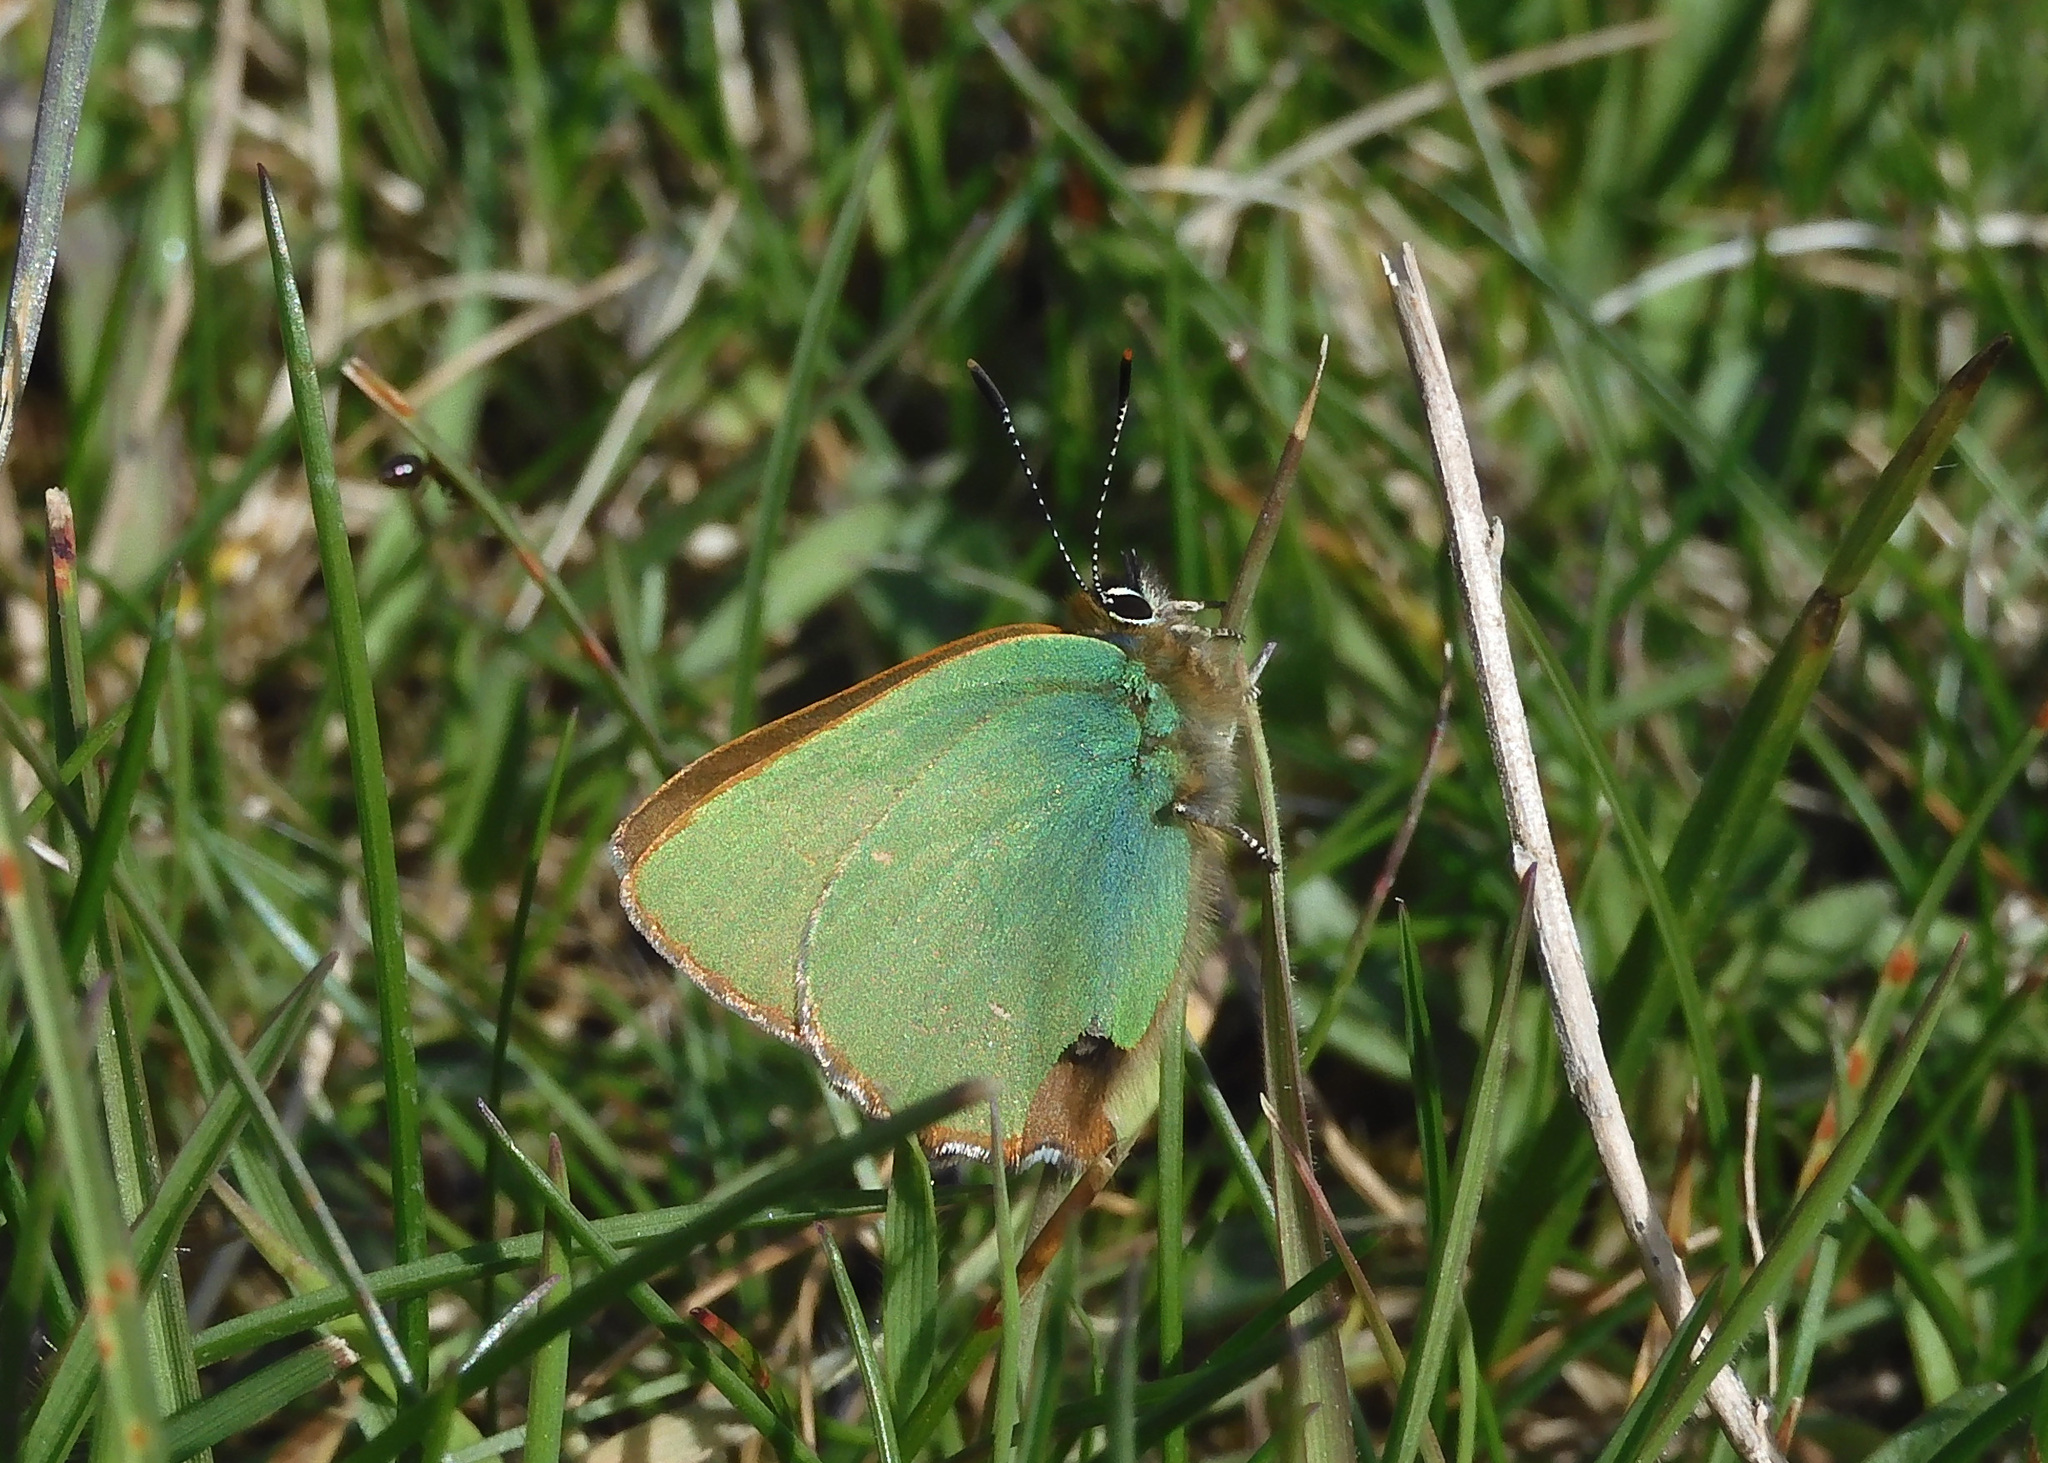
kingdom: Animalia
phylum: Arthropoda
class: Insecta
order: Lepidoptera
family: Lycaenidae
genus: Callophrys
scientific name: Callophrys rubi
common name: Green hairstreak
